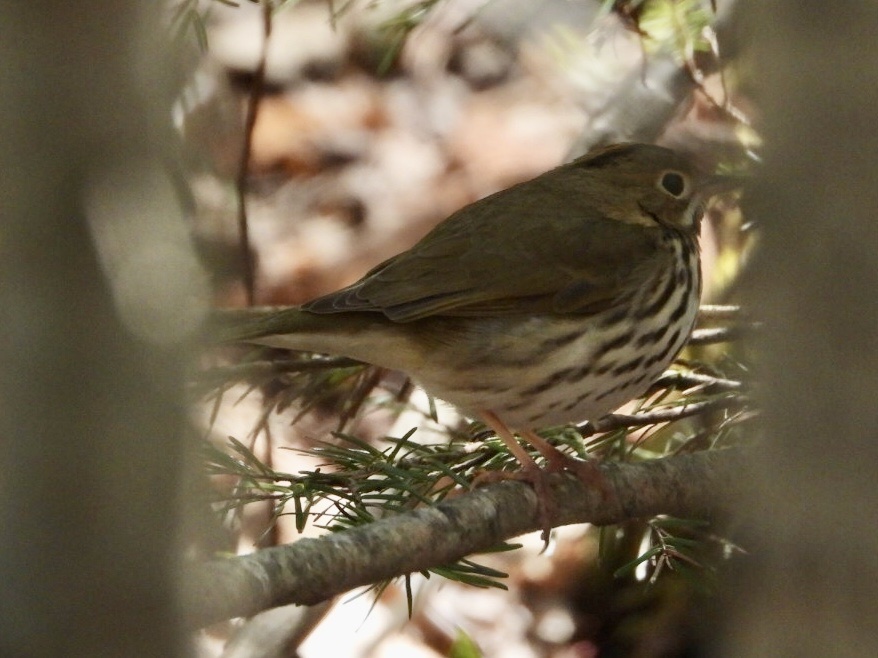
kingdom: Animalia
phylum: Chordata
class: Aves
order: Passeriformes
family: Parulidae
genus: Seiurus
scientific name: Seiurus aurocapilla
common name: Ovenbird
